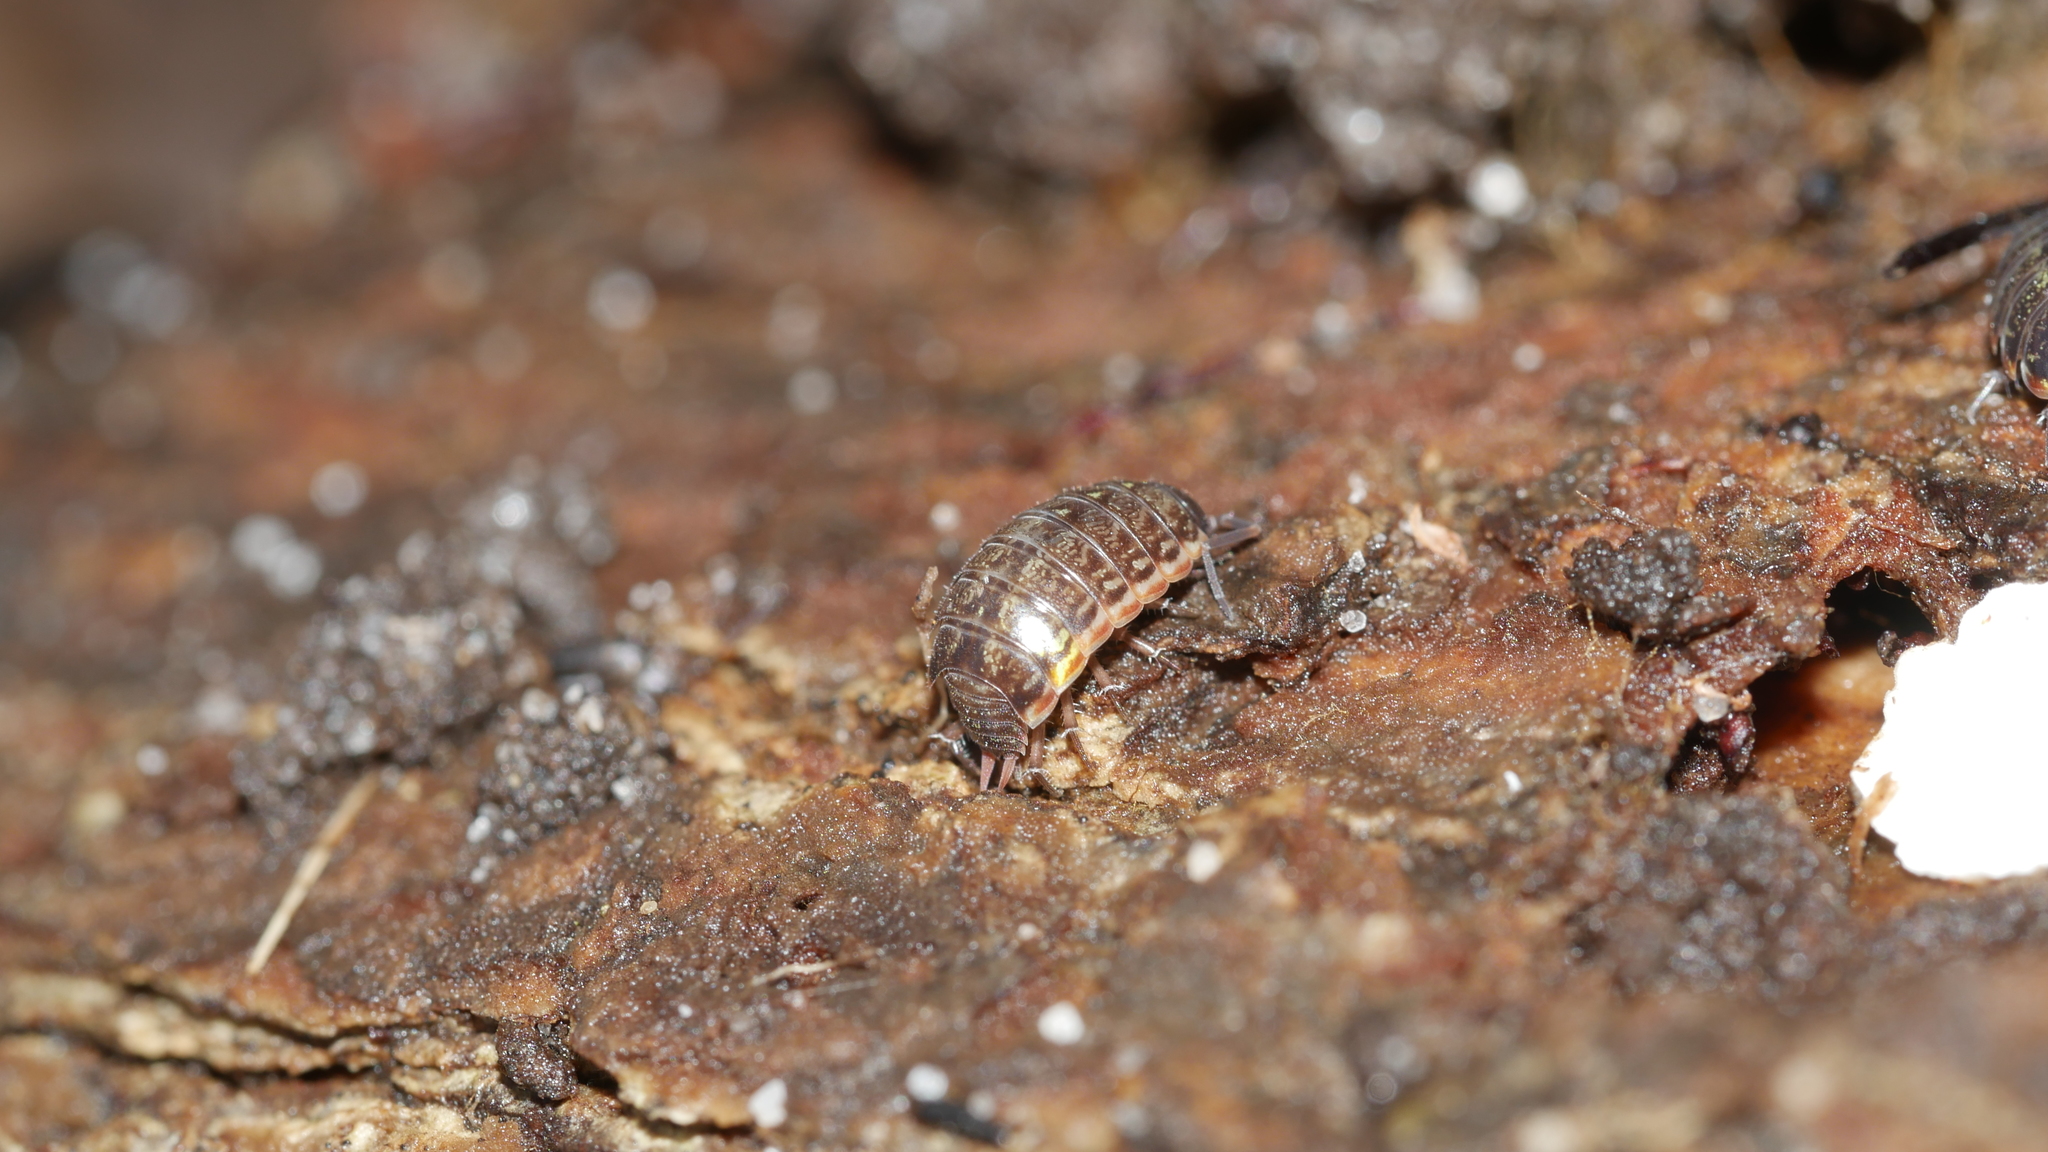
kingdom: Animalia
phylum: Arthropoda
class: Malacostraca
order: Isopoda
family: Philosciidae
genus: Philoscia
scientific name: Philoscia muscorum
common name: Common striped woodlouse
